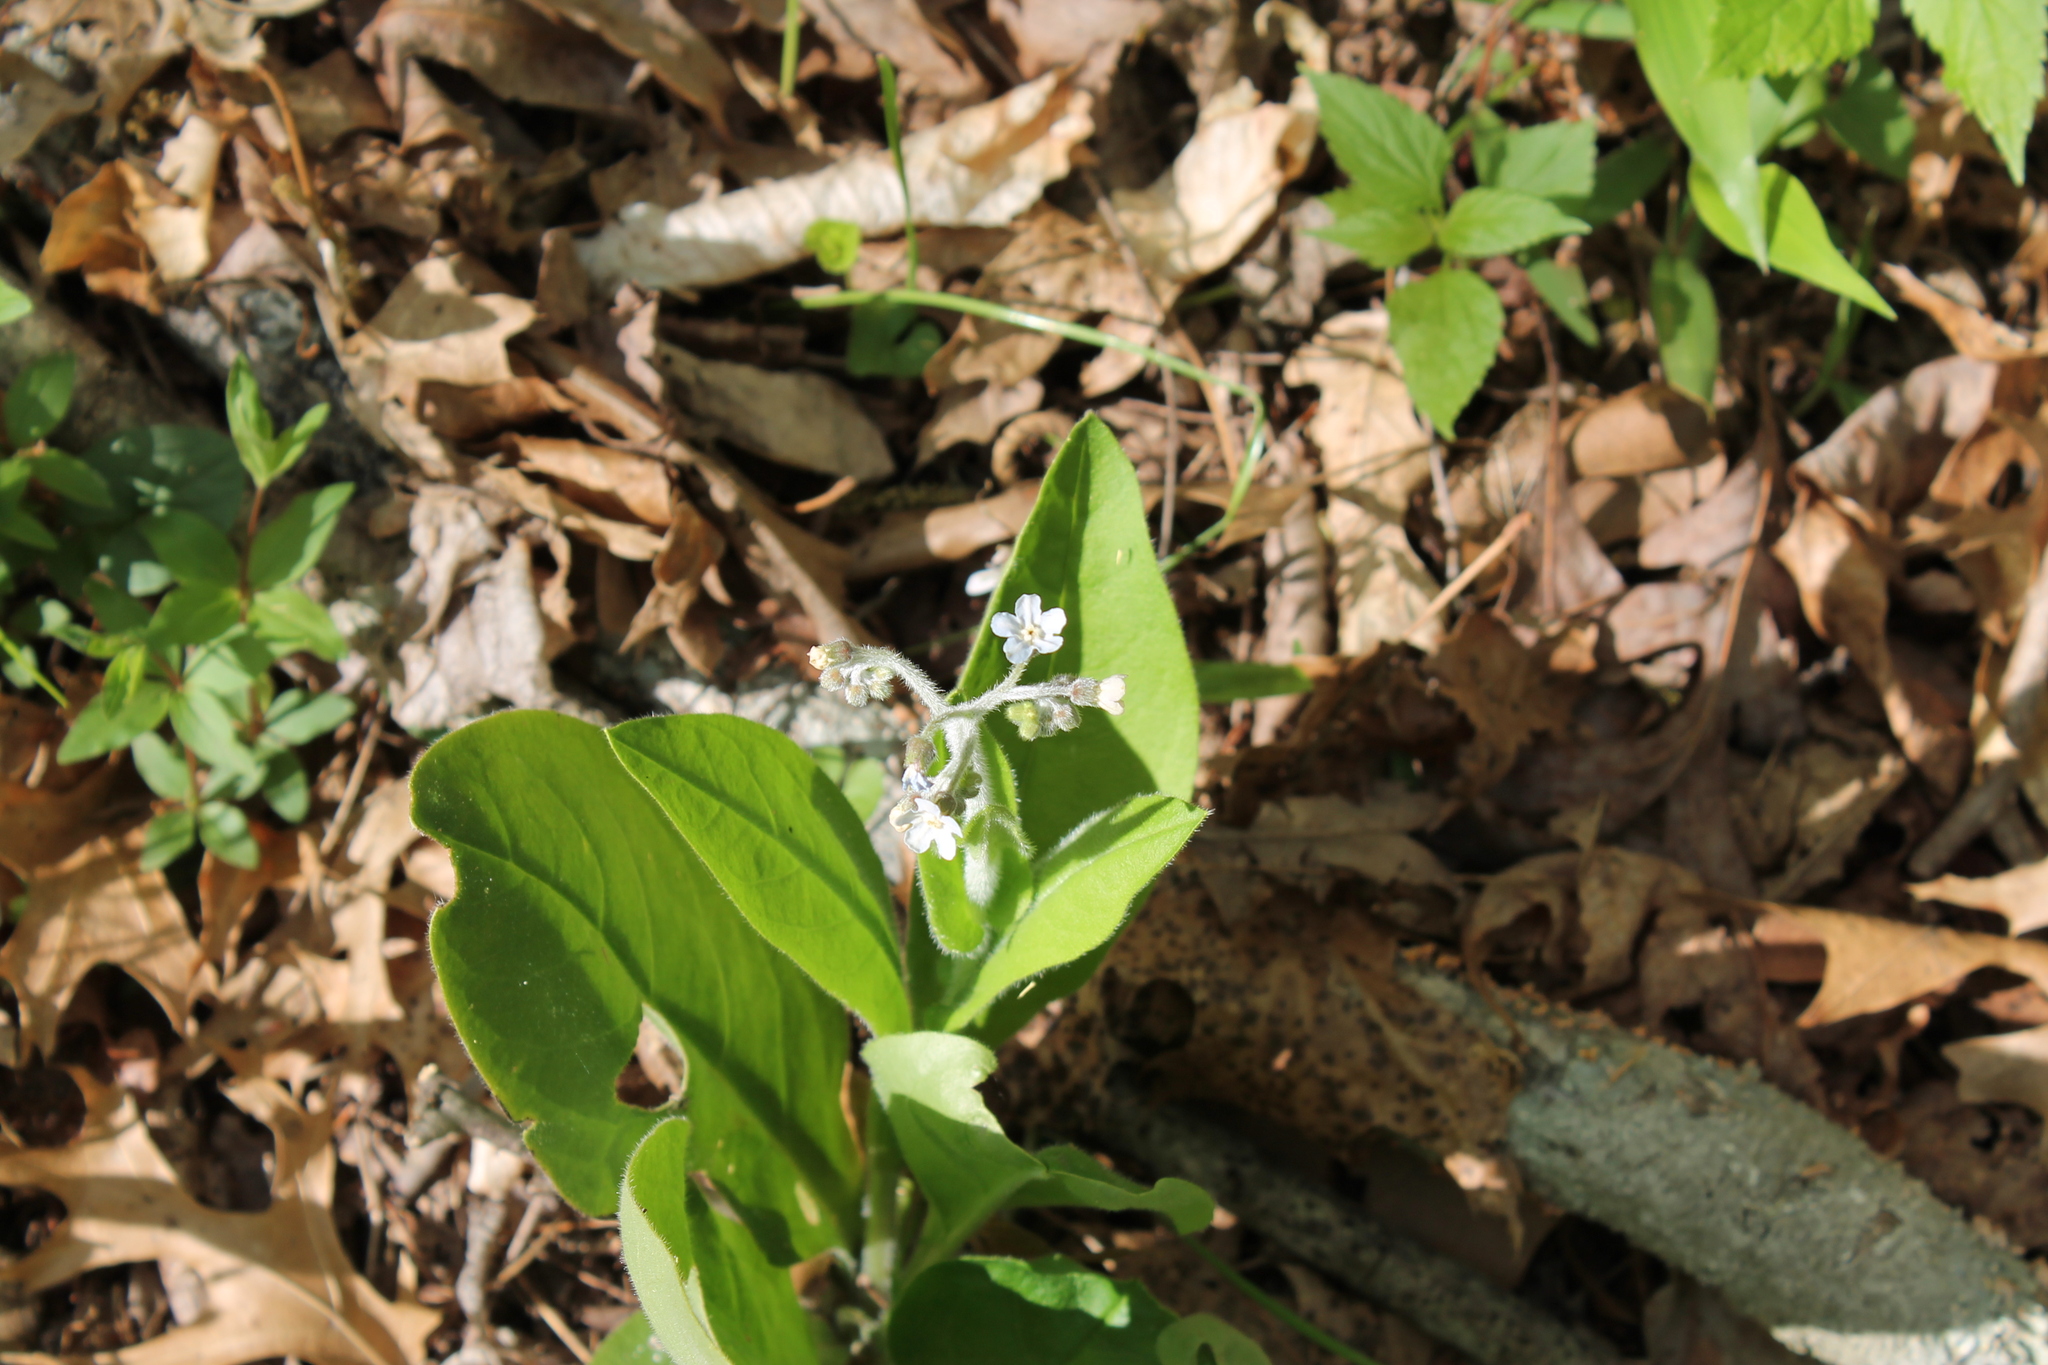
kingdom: Plantae
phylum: Tracheophyta
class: Magnoliopsida
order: Boraginales
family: Boraginaceae
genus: Andersonglossum
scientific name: Andersonglossum virginianum
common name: Wild comfrey
